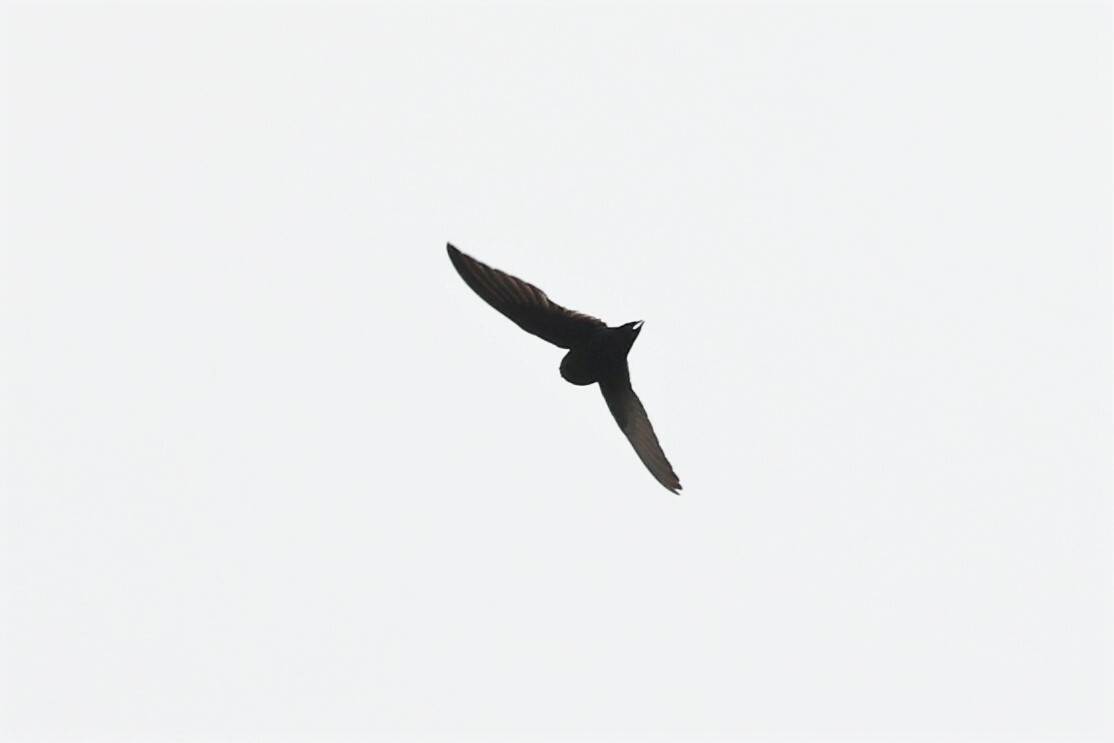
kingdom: Animalia
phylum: Chordata
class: Aves
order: Apodiformes
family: Apodidae
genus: Apus
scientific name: Apus caffer
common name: White-rumped swift
